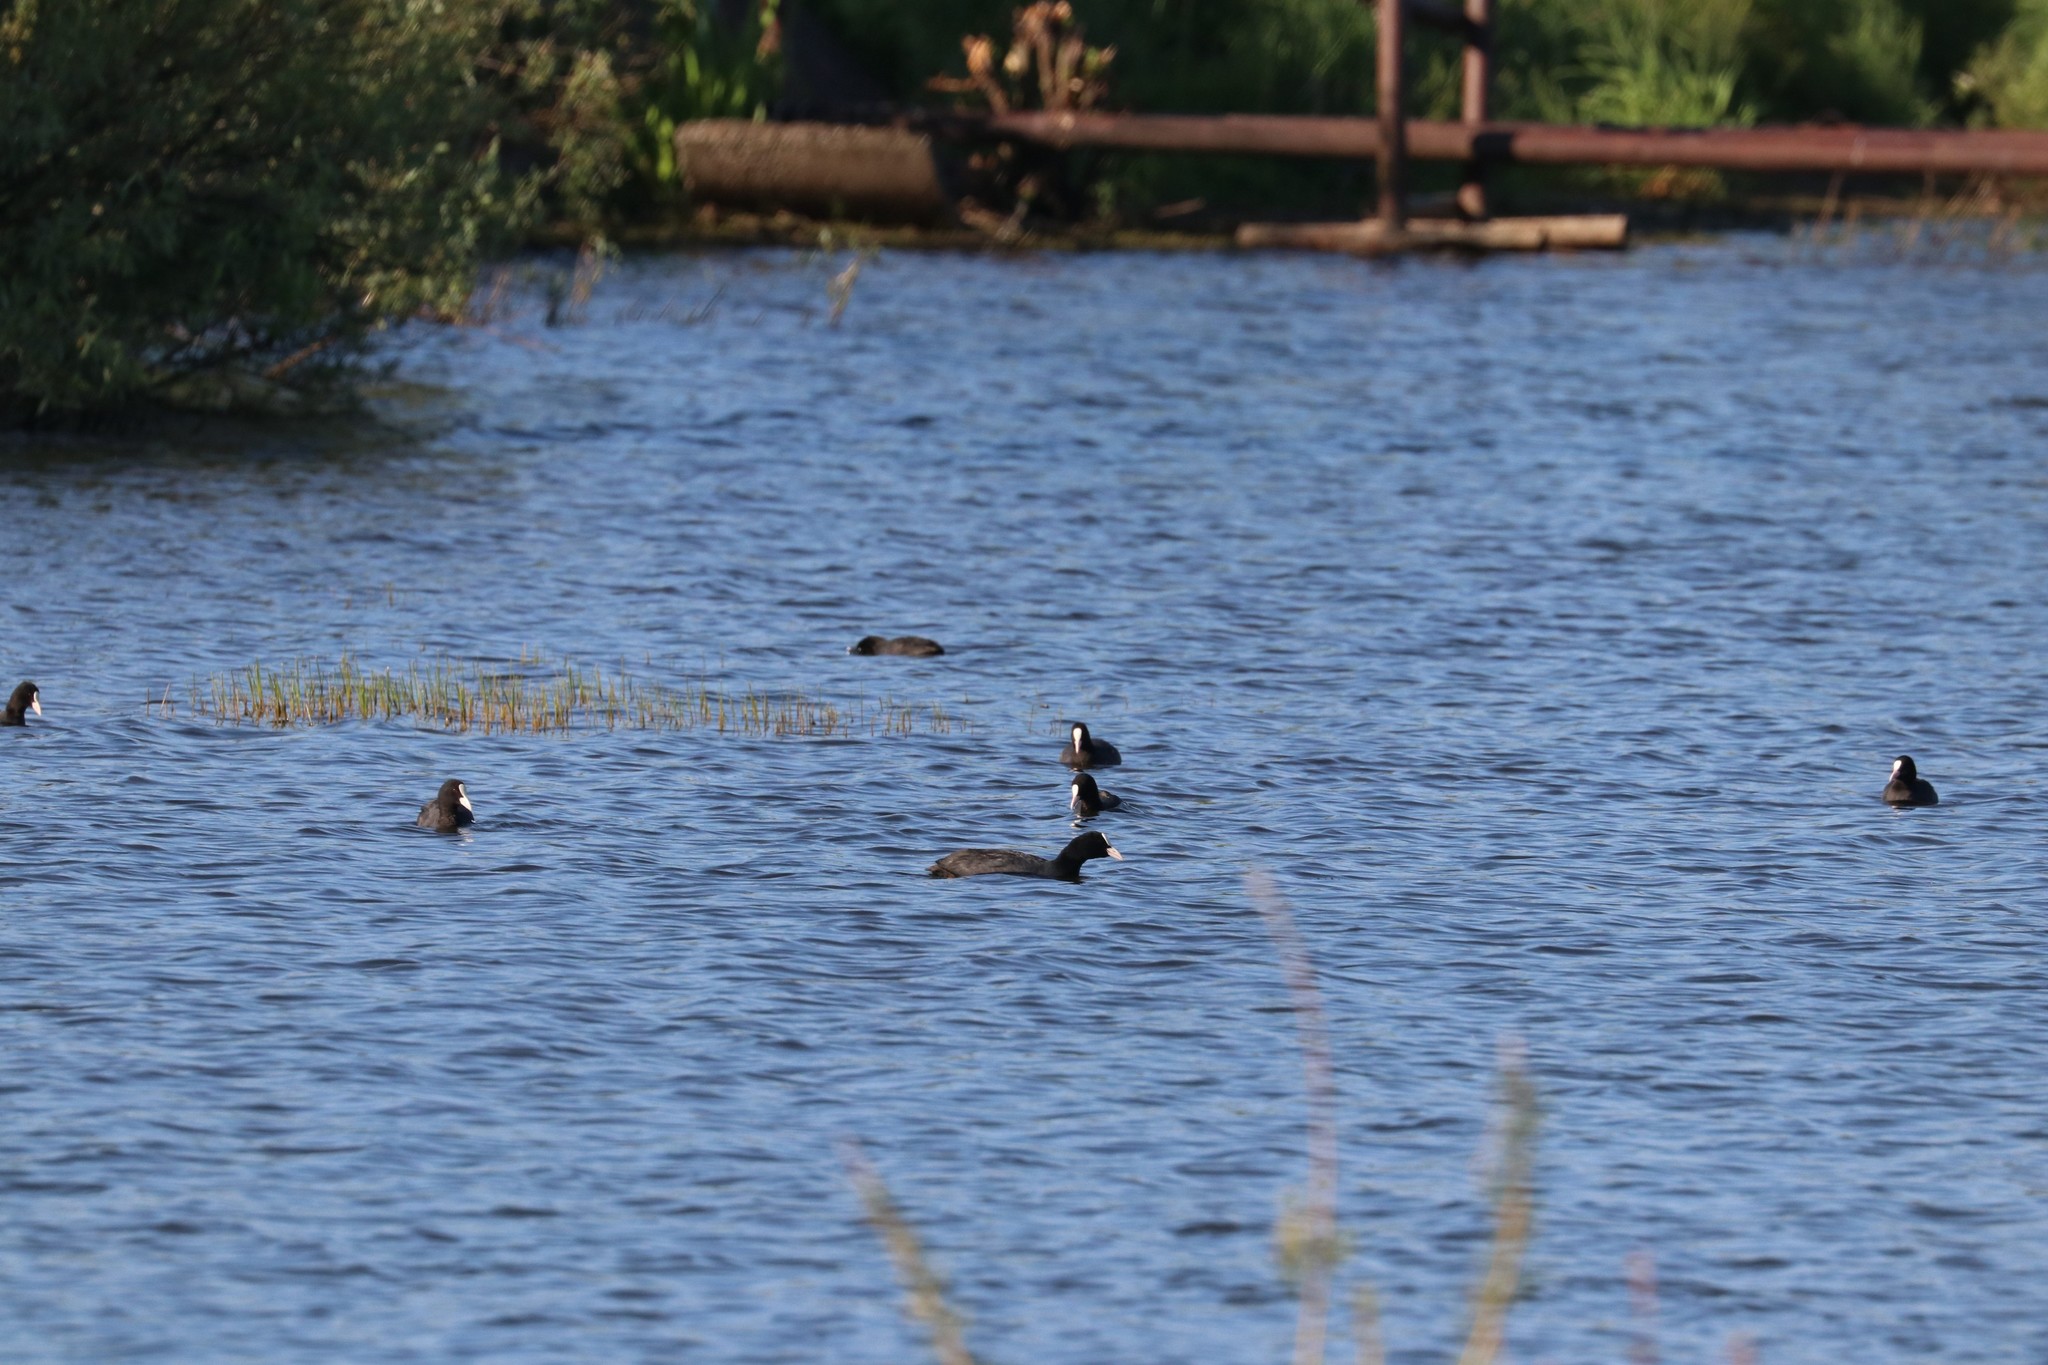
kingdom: Animalia
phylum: Chordata
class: Aves
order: Gruiformes
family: Rallidae
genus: Fulica
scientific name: Fulica atra
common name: Eurasian coot
